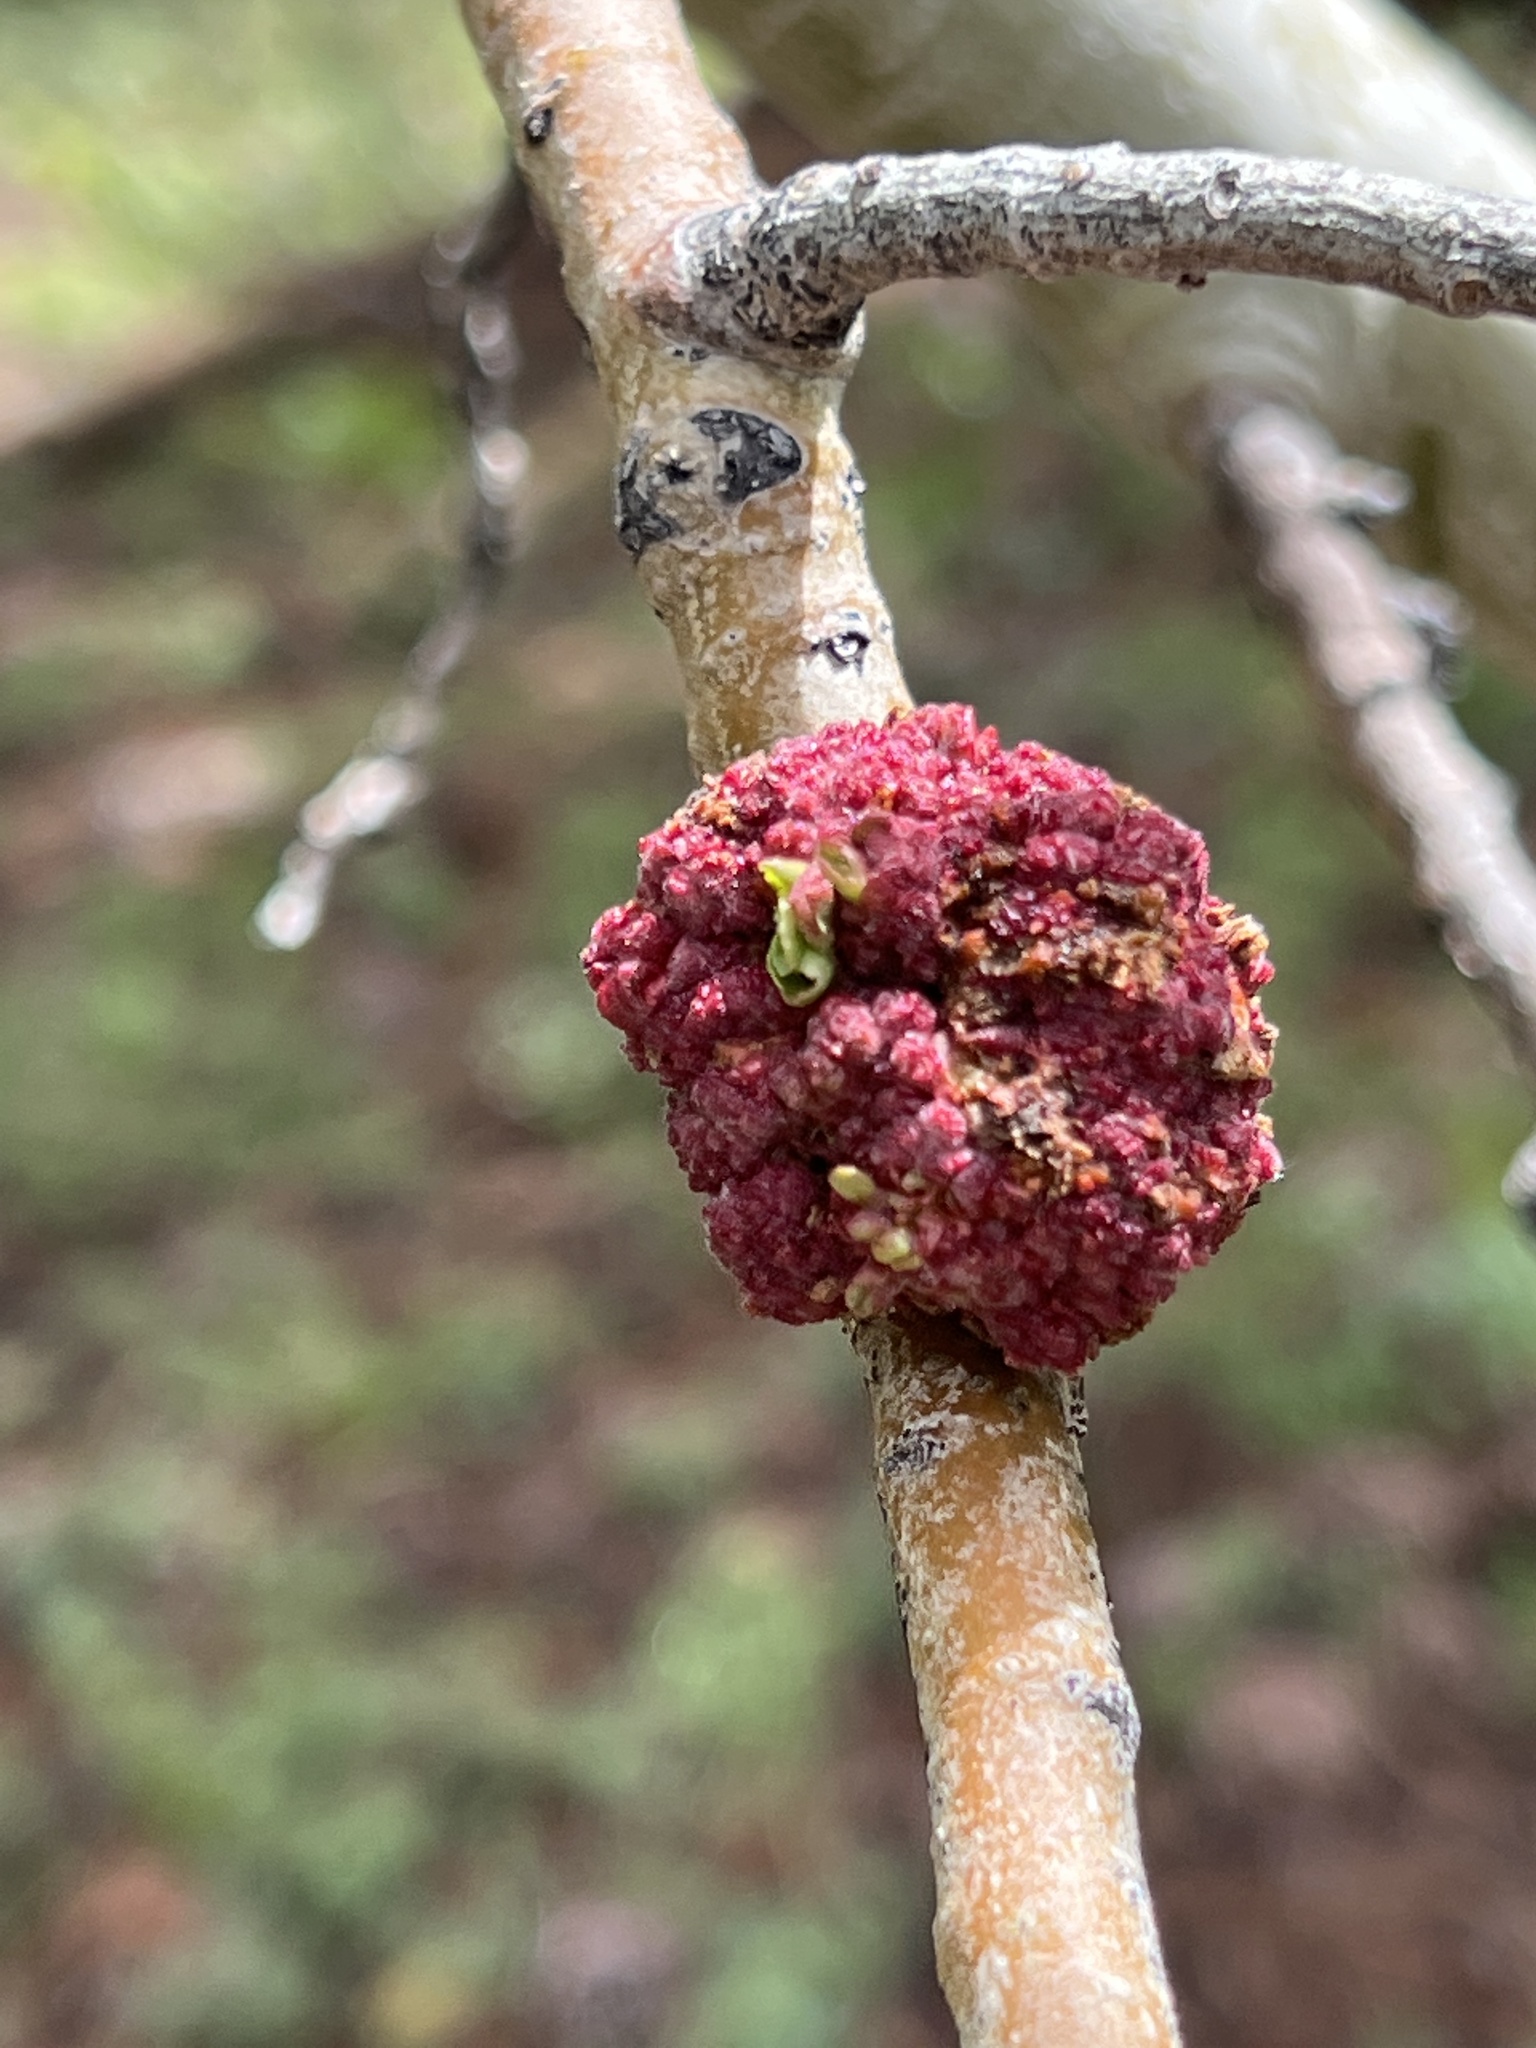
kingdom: Animalia
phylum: Arthropoda
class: Arachnida
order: Trombidiformes
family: Eriophyidae
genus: Aceria
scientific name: Aceria
